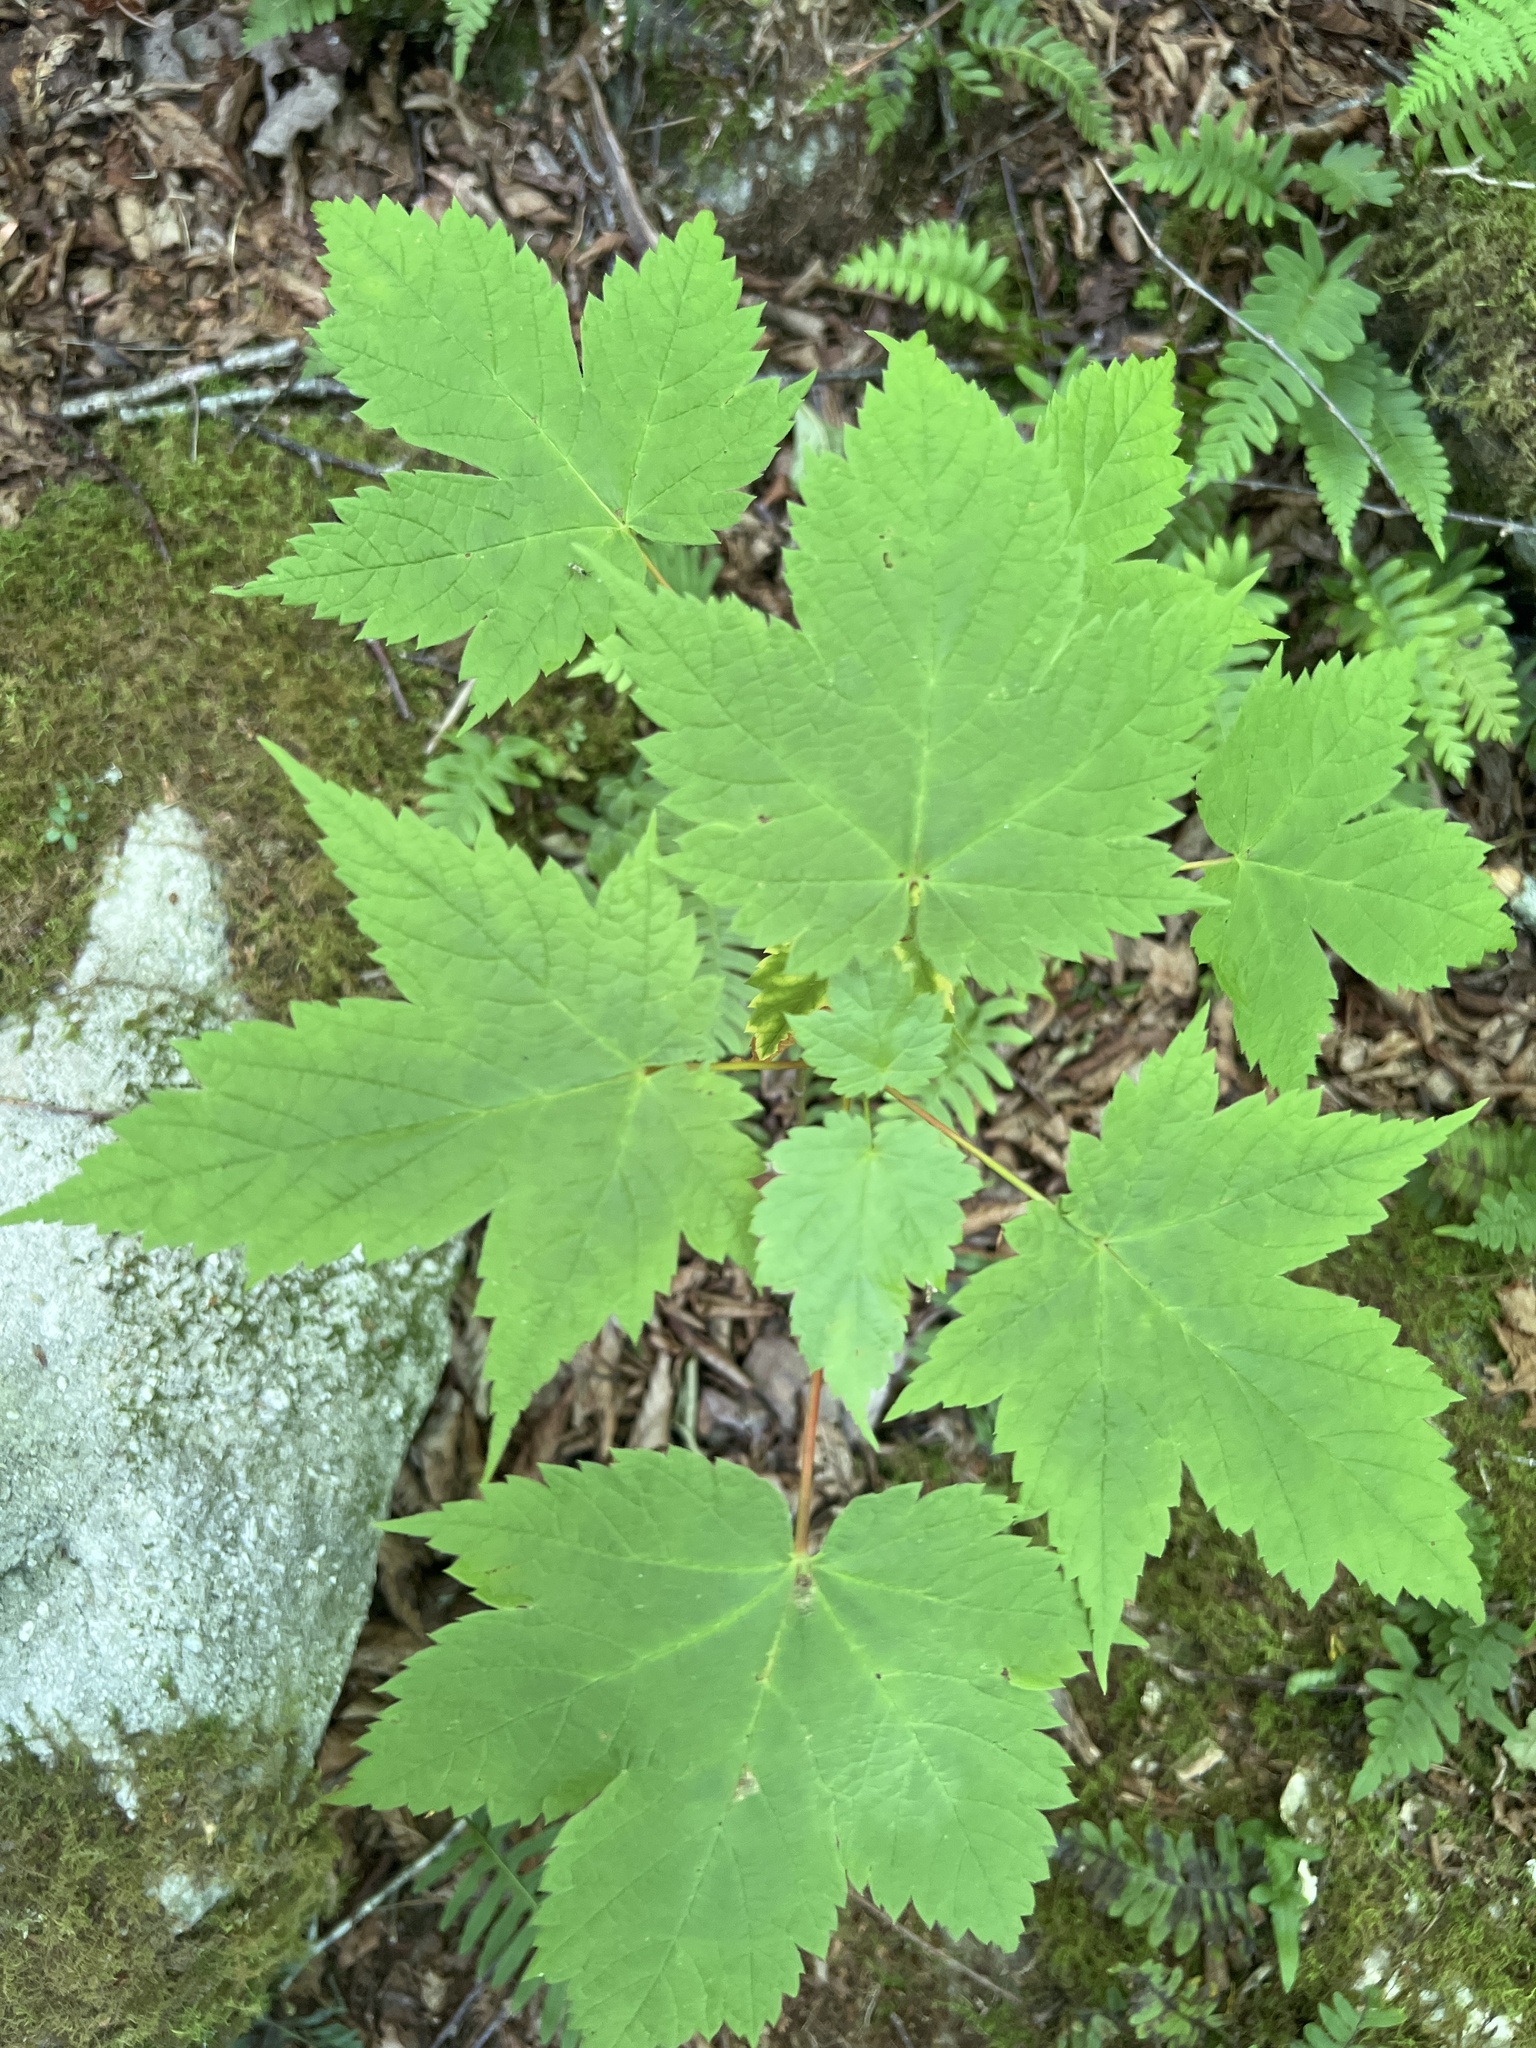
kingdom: Plantae
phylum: Tracheophyta
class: Magnoliopsida
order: Sapindales
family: Sapindaceae
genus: Acer
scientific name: Acer spicatum
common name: Mountain maple
